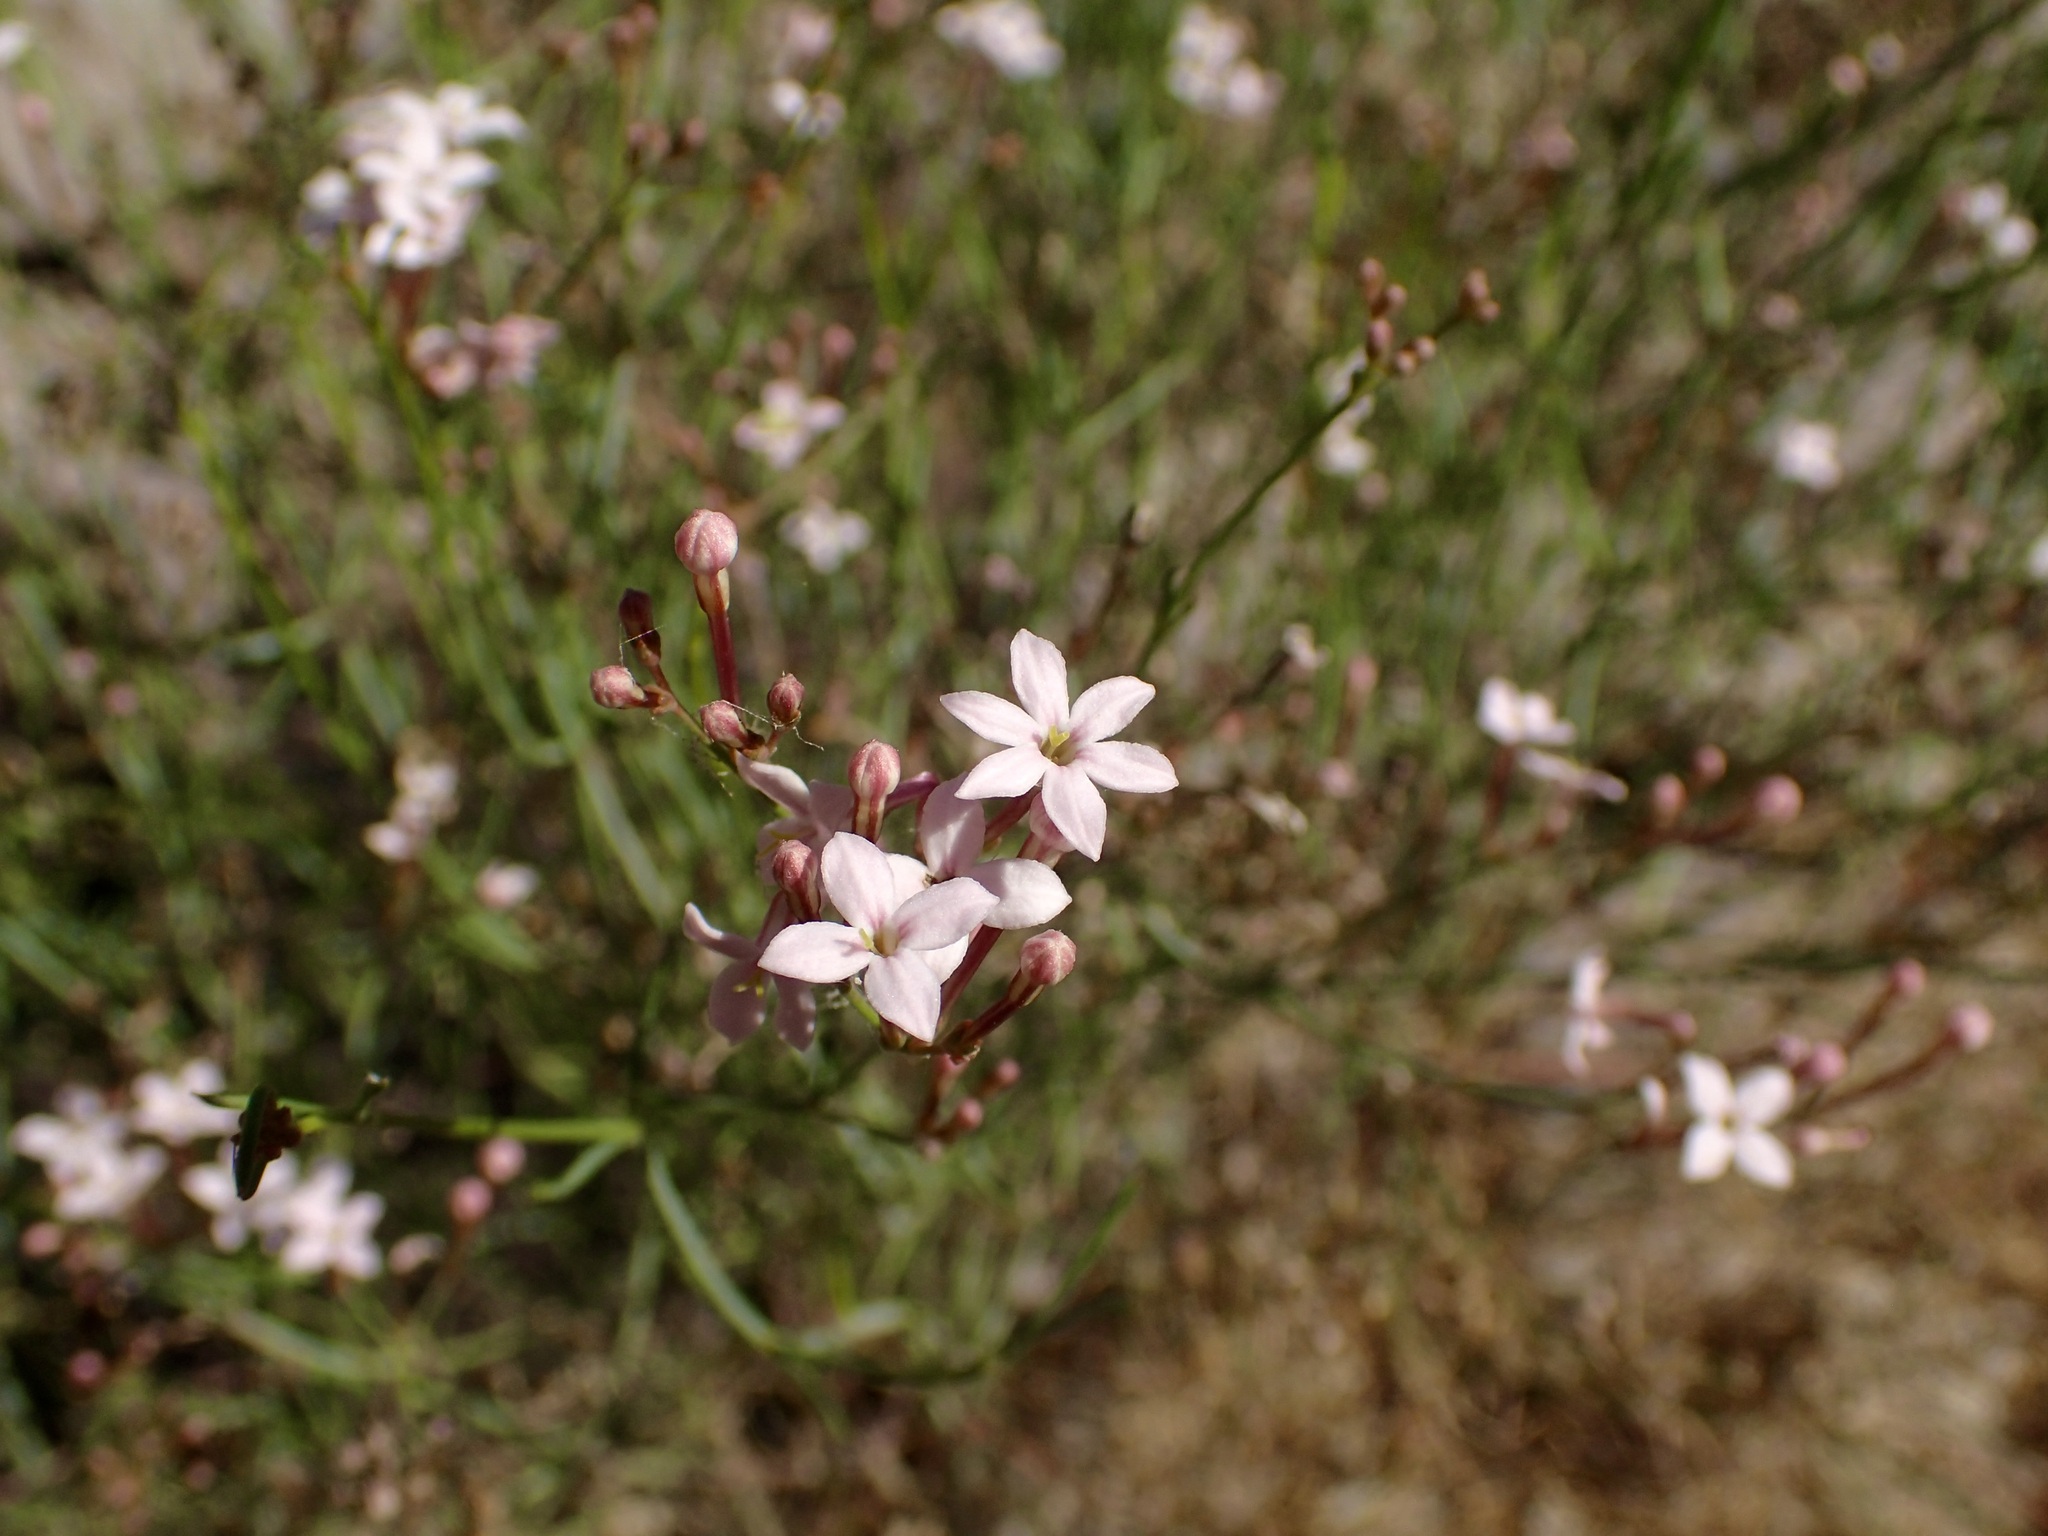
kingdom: Plantae
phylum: Tracheophyta
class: Magnoliopsida
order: Gentianales
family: Rubiaceae
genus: Stenotis
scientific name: Stenotis brevipes
